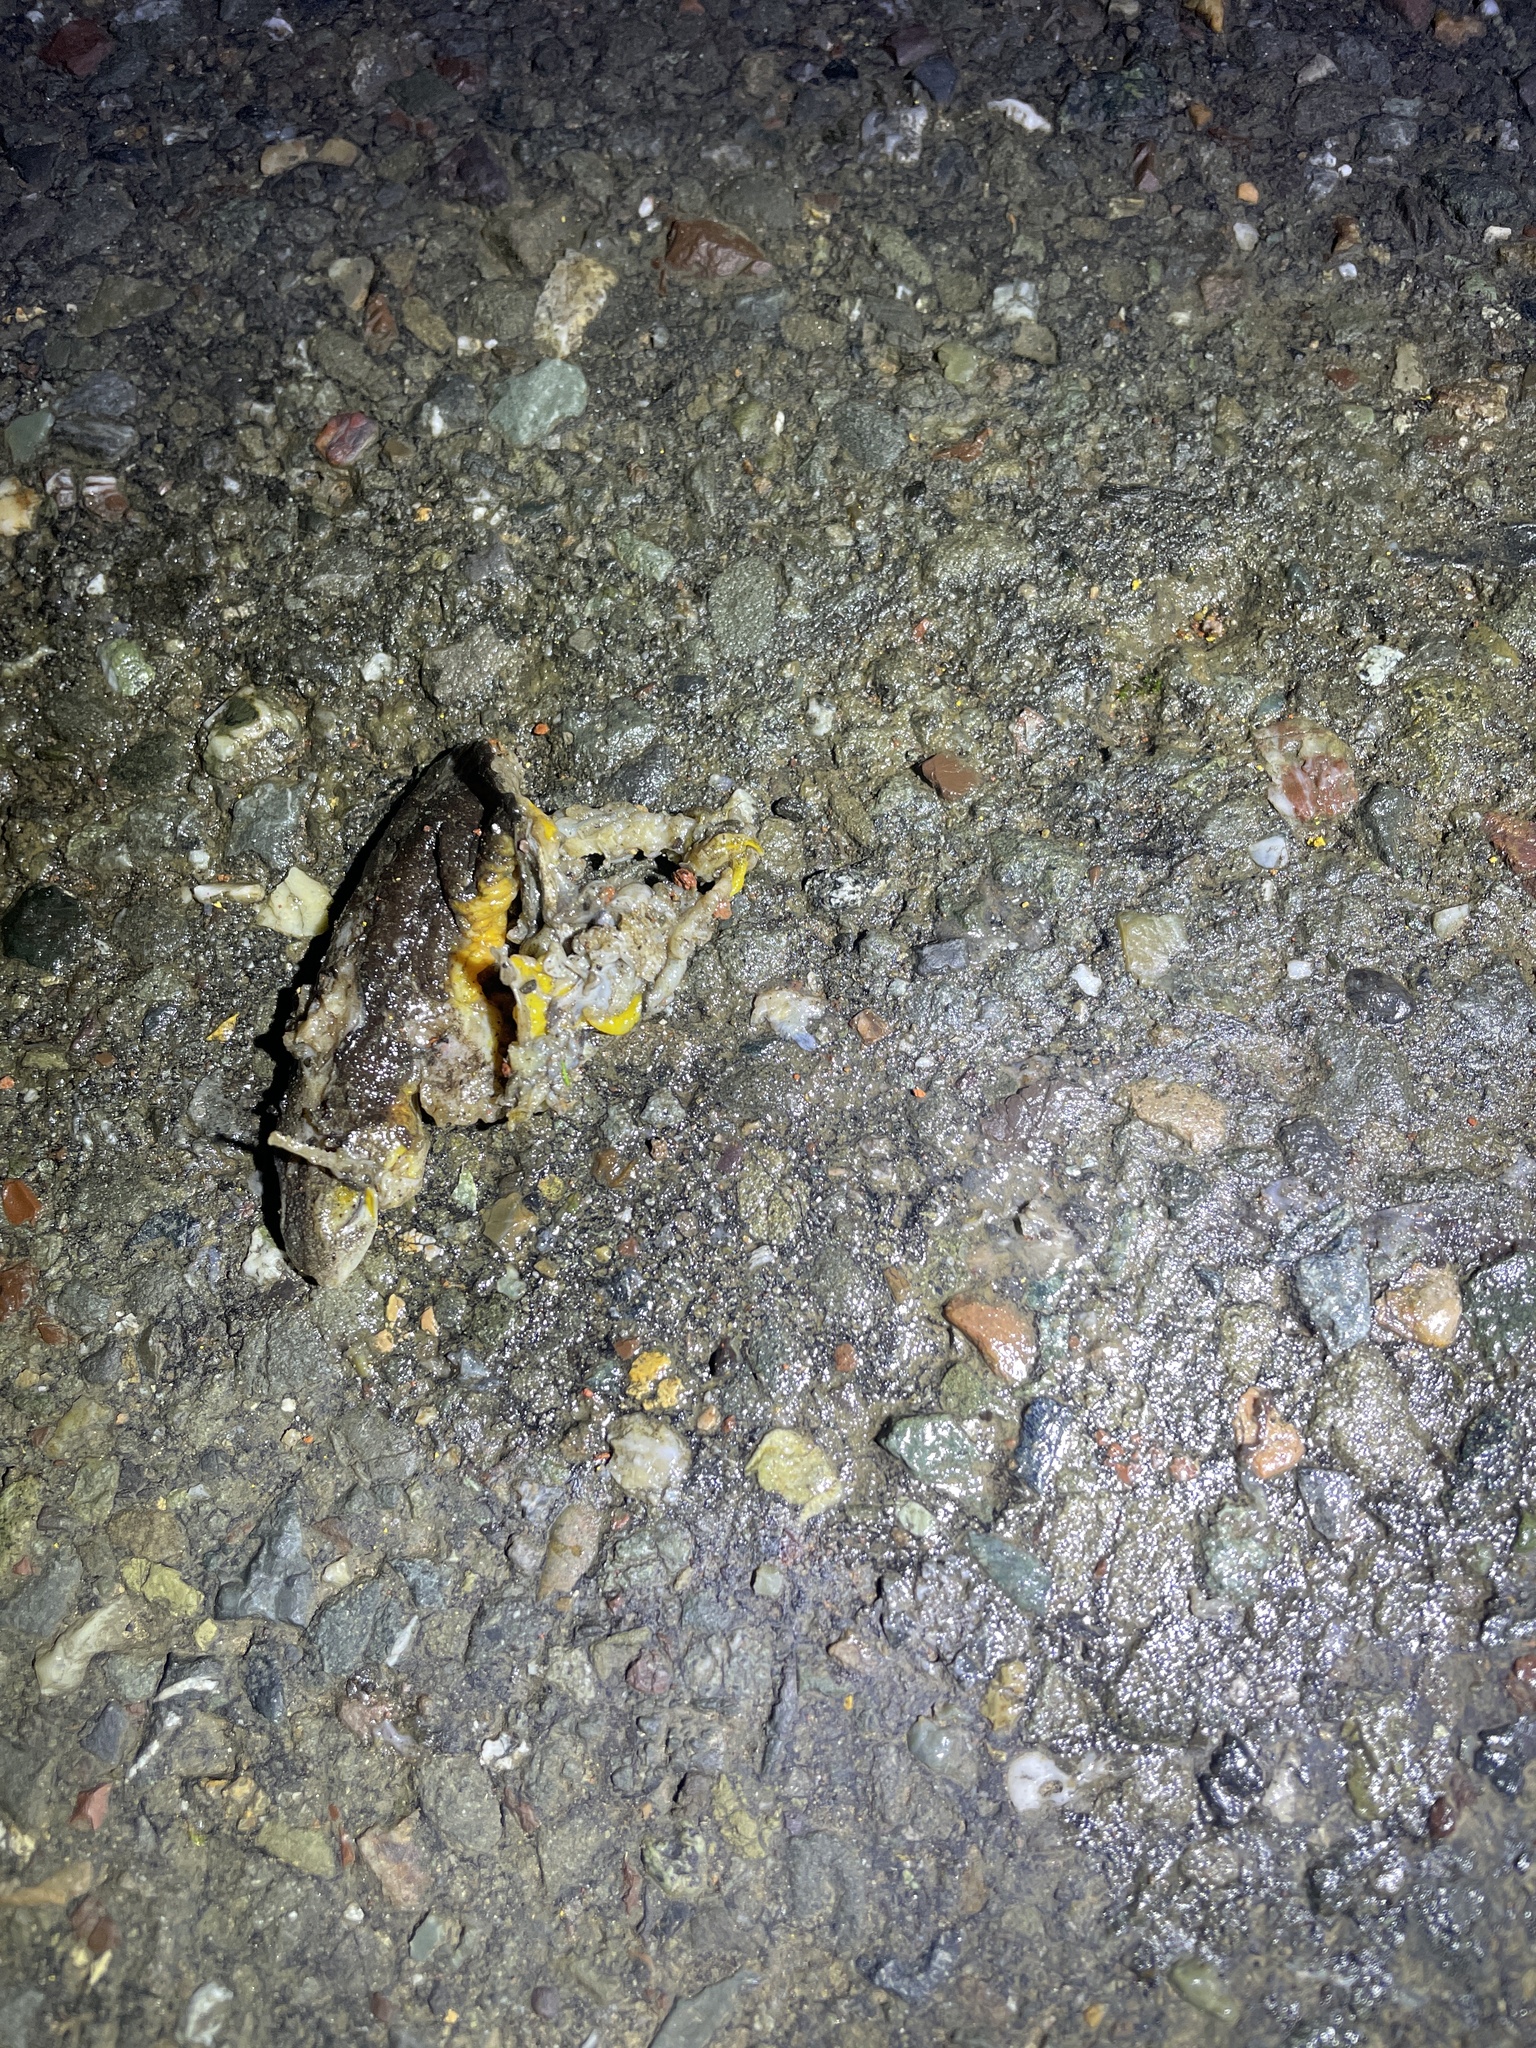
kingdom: Animalia
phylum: Chordata
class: Amphibia
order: Caudata
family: Salamandridae
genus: Taricha
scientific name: Taricha
